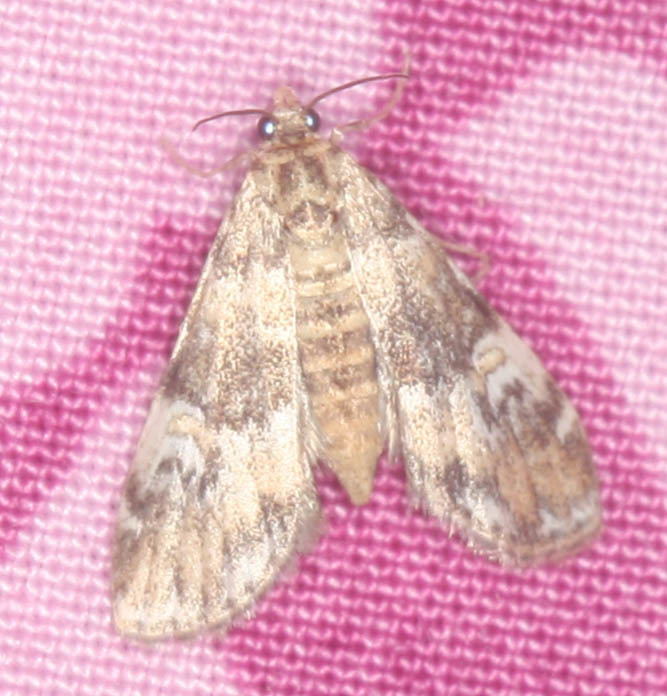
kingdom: Animalia
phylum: Arthropoda
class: Insecta
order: Lepidoptera
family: Crambidae
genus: Elophila
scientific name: Elophila obliteralis
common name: Waterlily leafcutter moth
